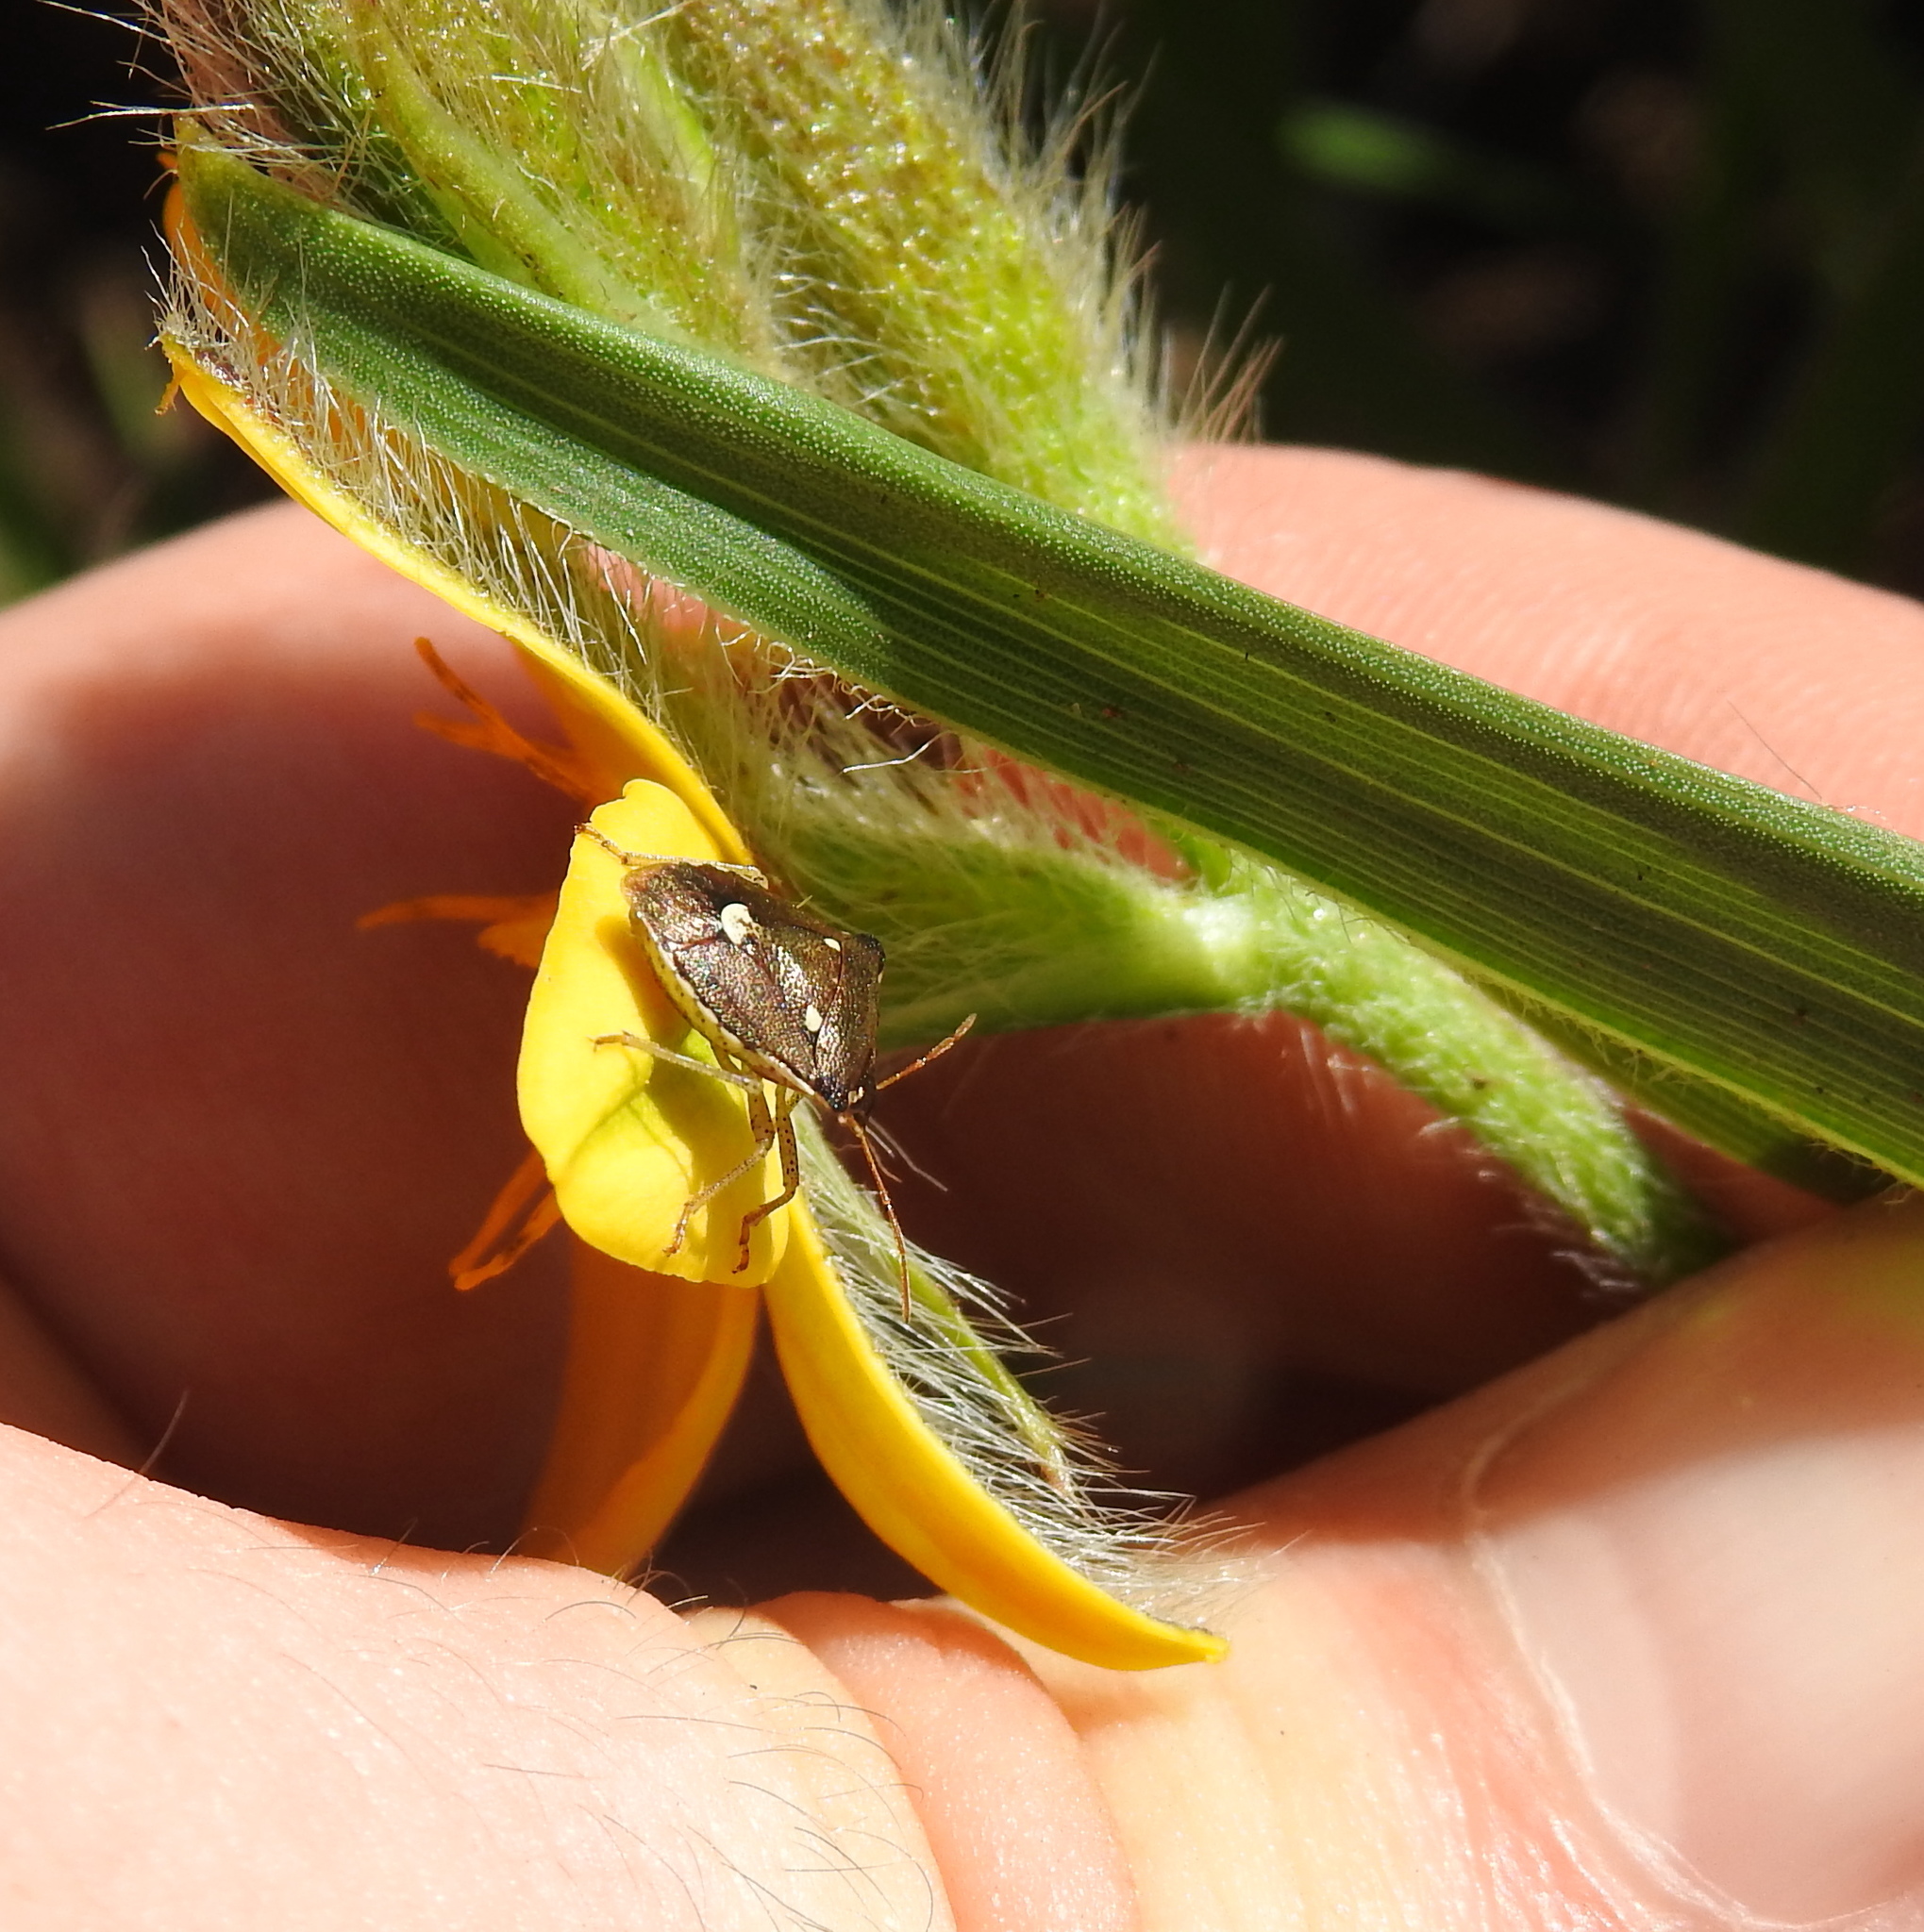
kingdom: Animalia
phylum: Arthropoda
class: Insecta
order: Hemiptera
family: Pentatomidae
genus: Carbula
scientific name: Carbula trisignata
